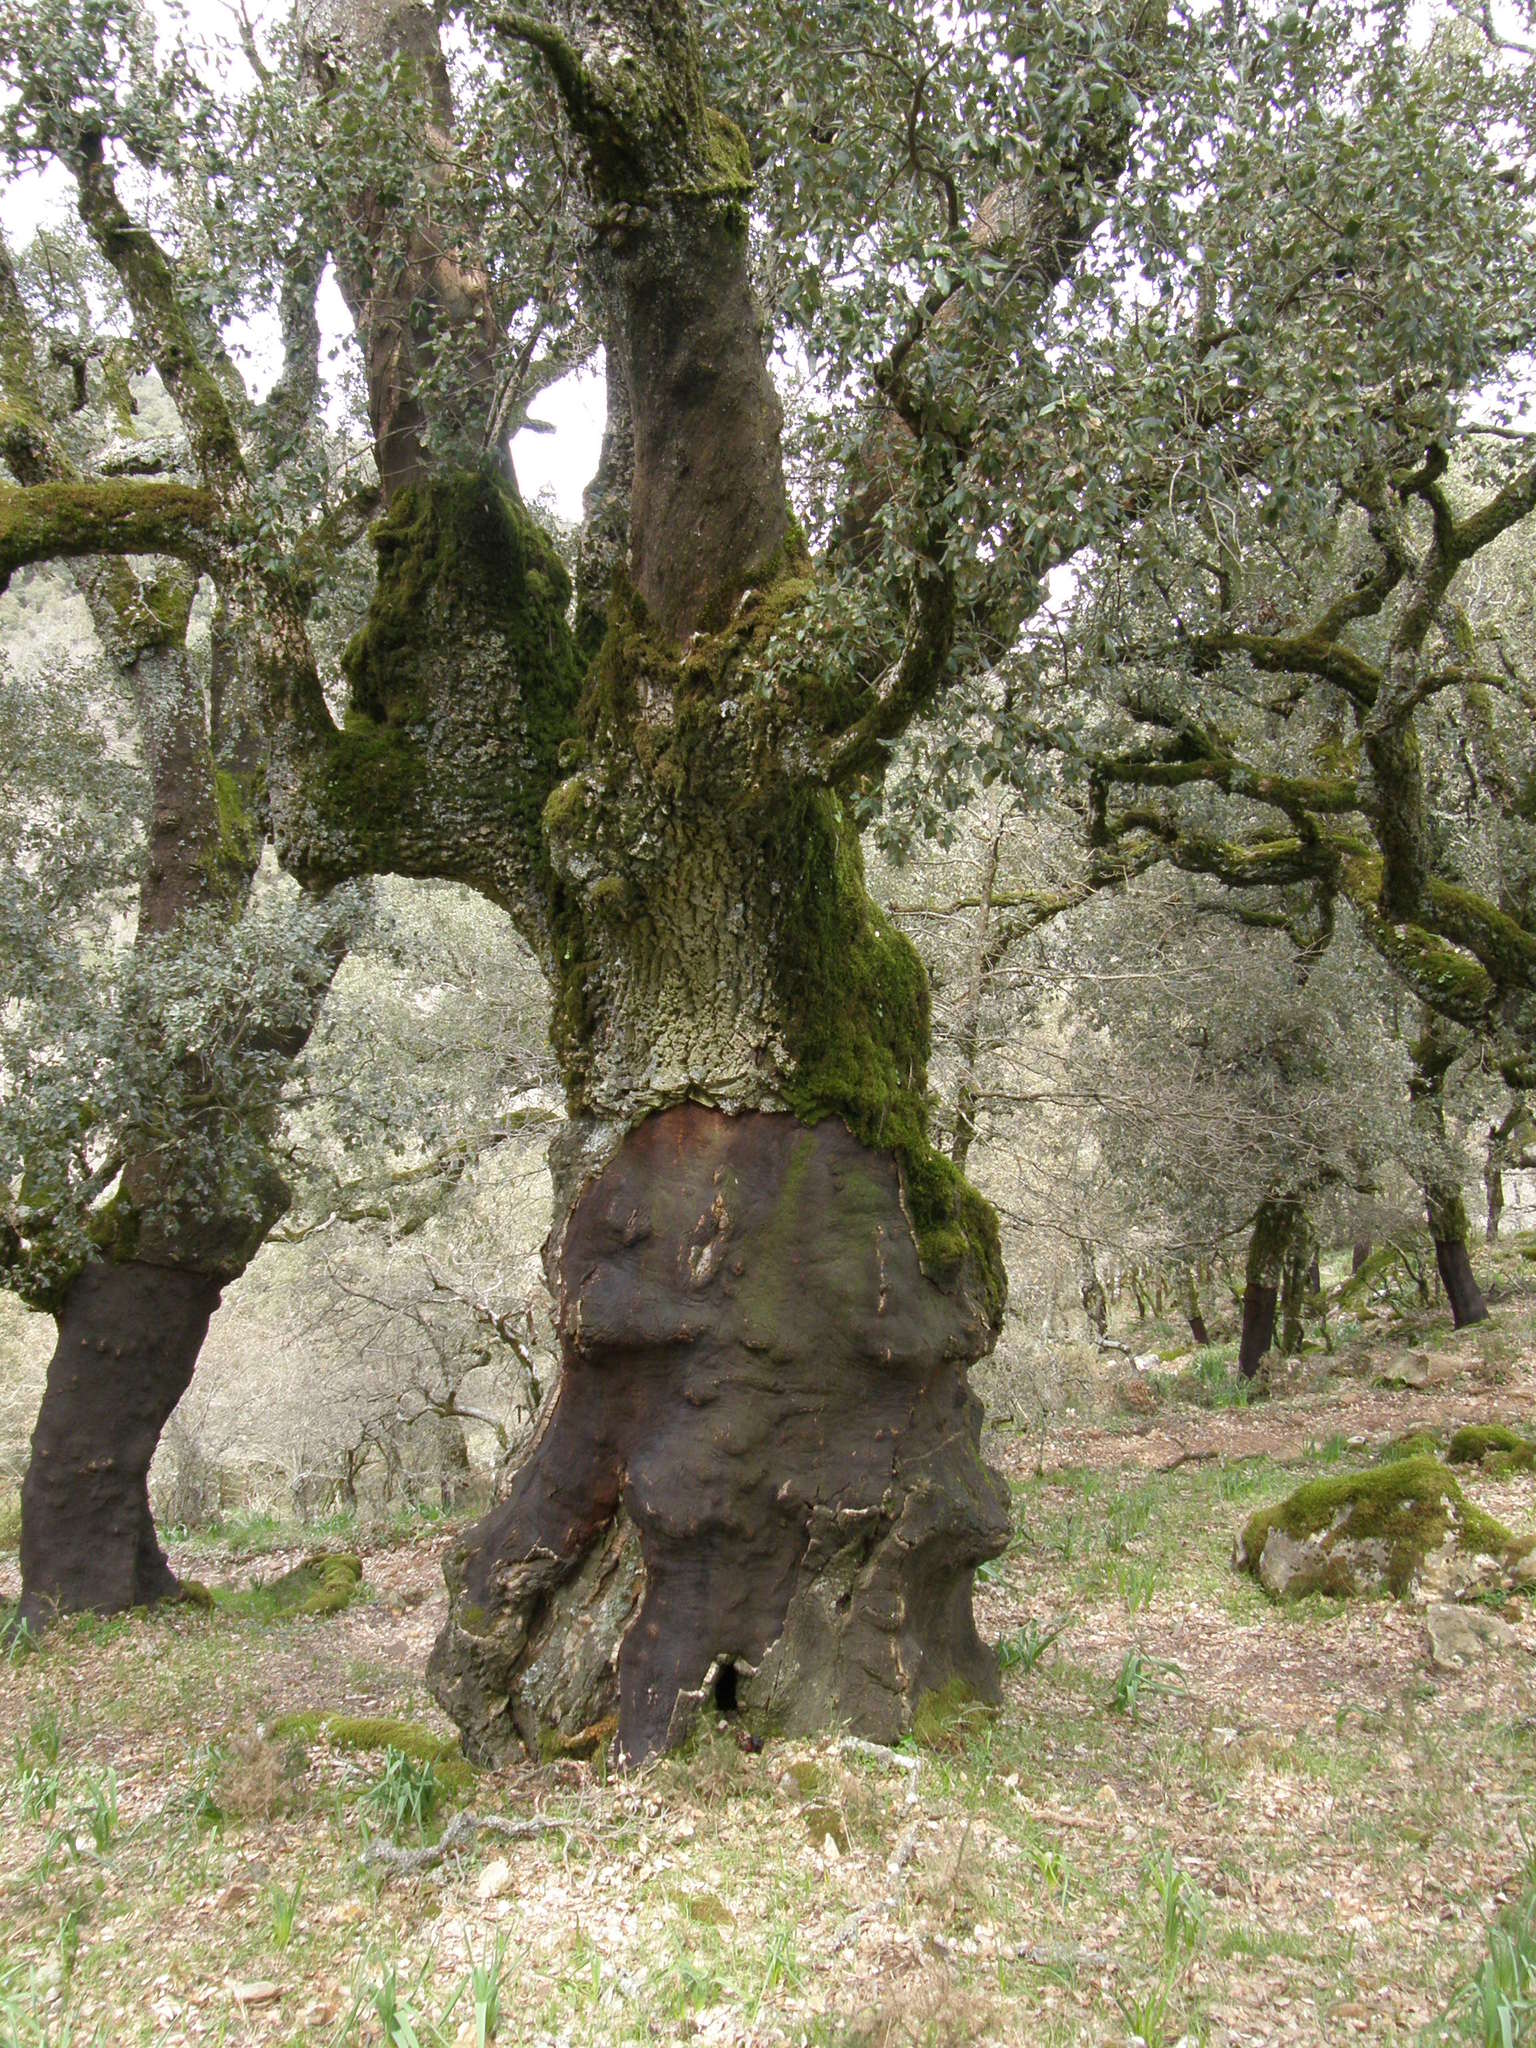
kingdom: Plantae
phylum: Tracheophyta
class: Magnoliopsida
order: Fagales
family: Fagaceae
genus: Quercus
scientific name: Quercus suber
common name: Cork oak
